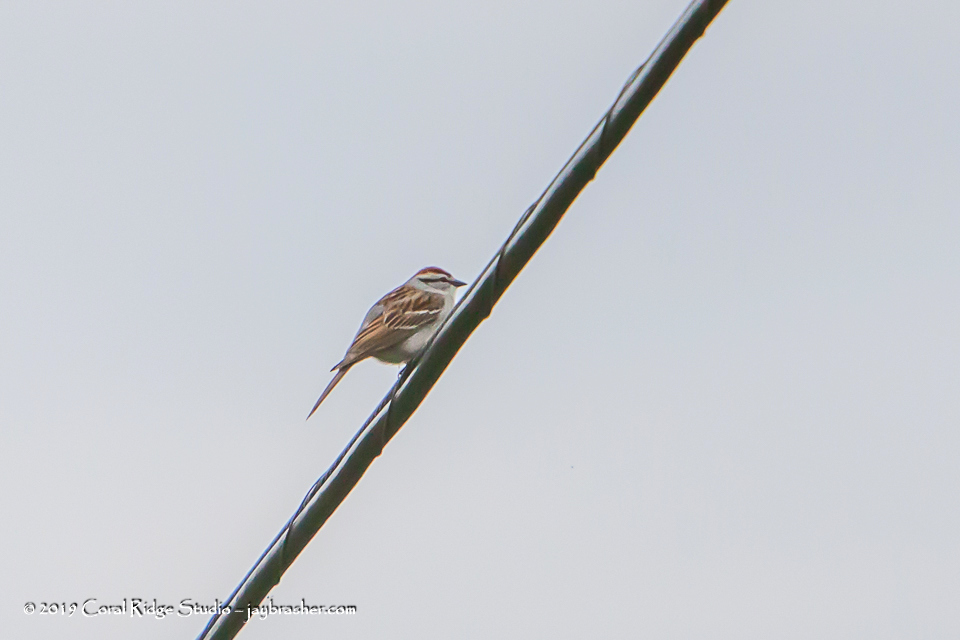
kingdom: Animalia
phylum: Chordata
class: Aves
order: Passeriformes
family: Passerellidae
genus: Spizella
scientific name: Spizella passerina
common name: Chipping sparrow
